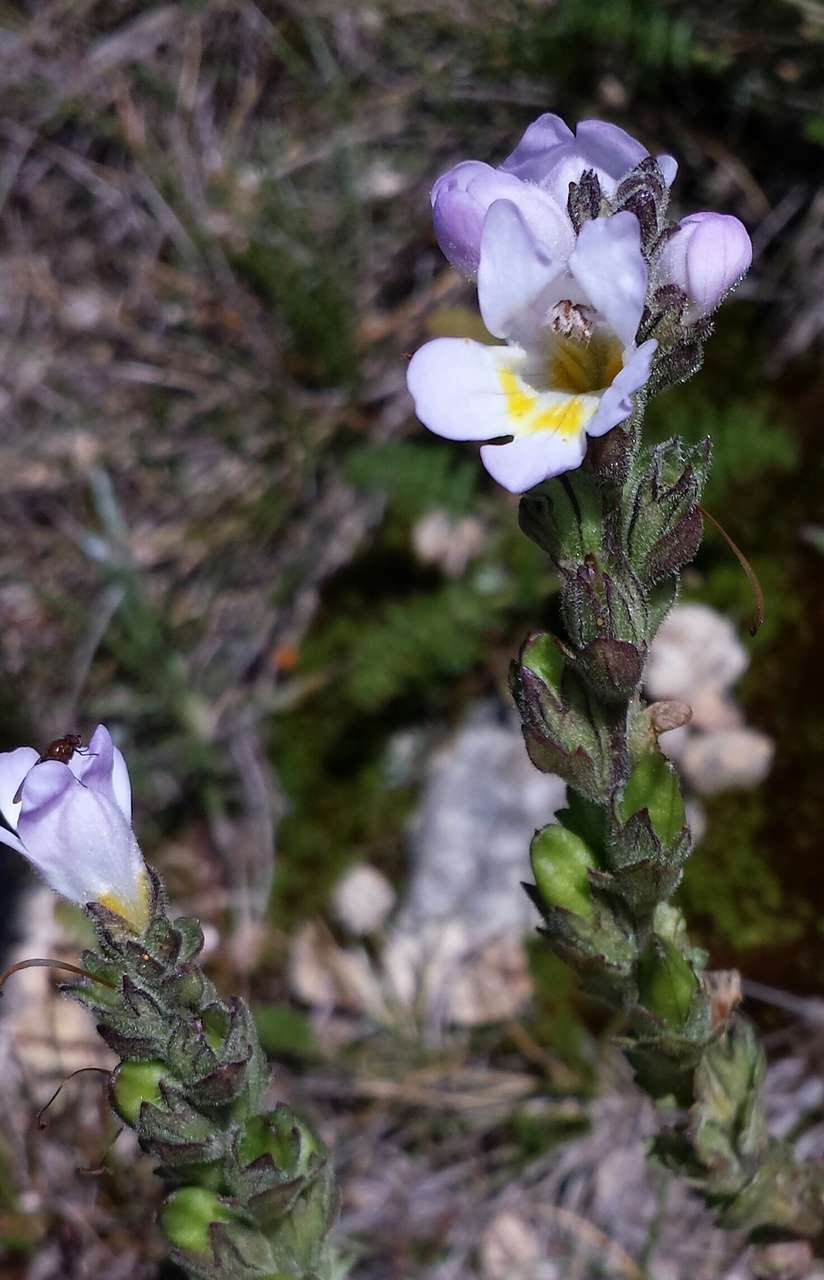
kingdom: Plantae
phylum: Tracheophyta
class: Magnoliopsida
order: Lamiales
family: Orobanchaceae
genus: Euphrasia
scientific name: Euphrasia collina
